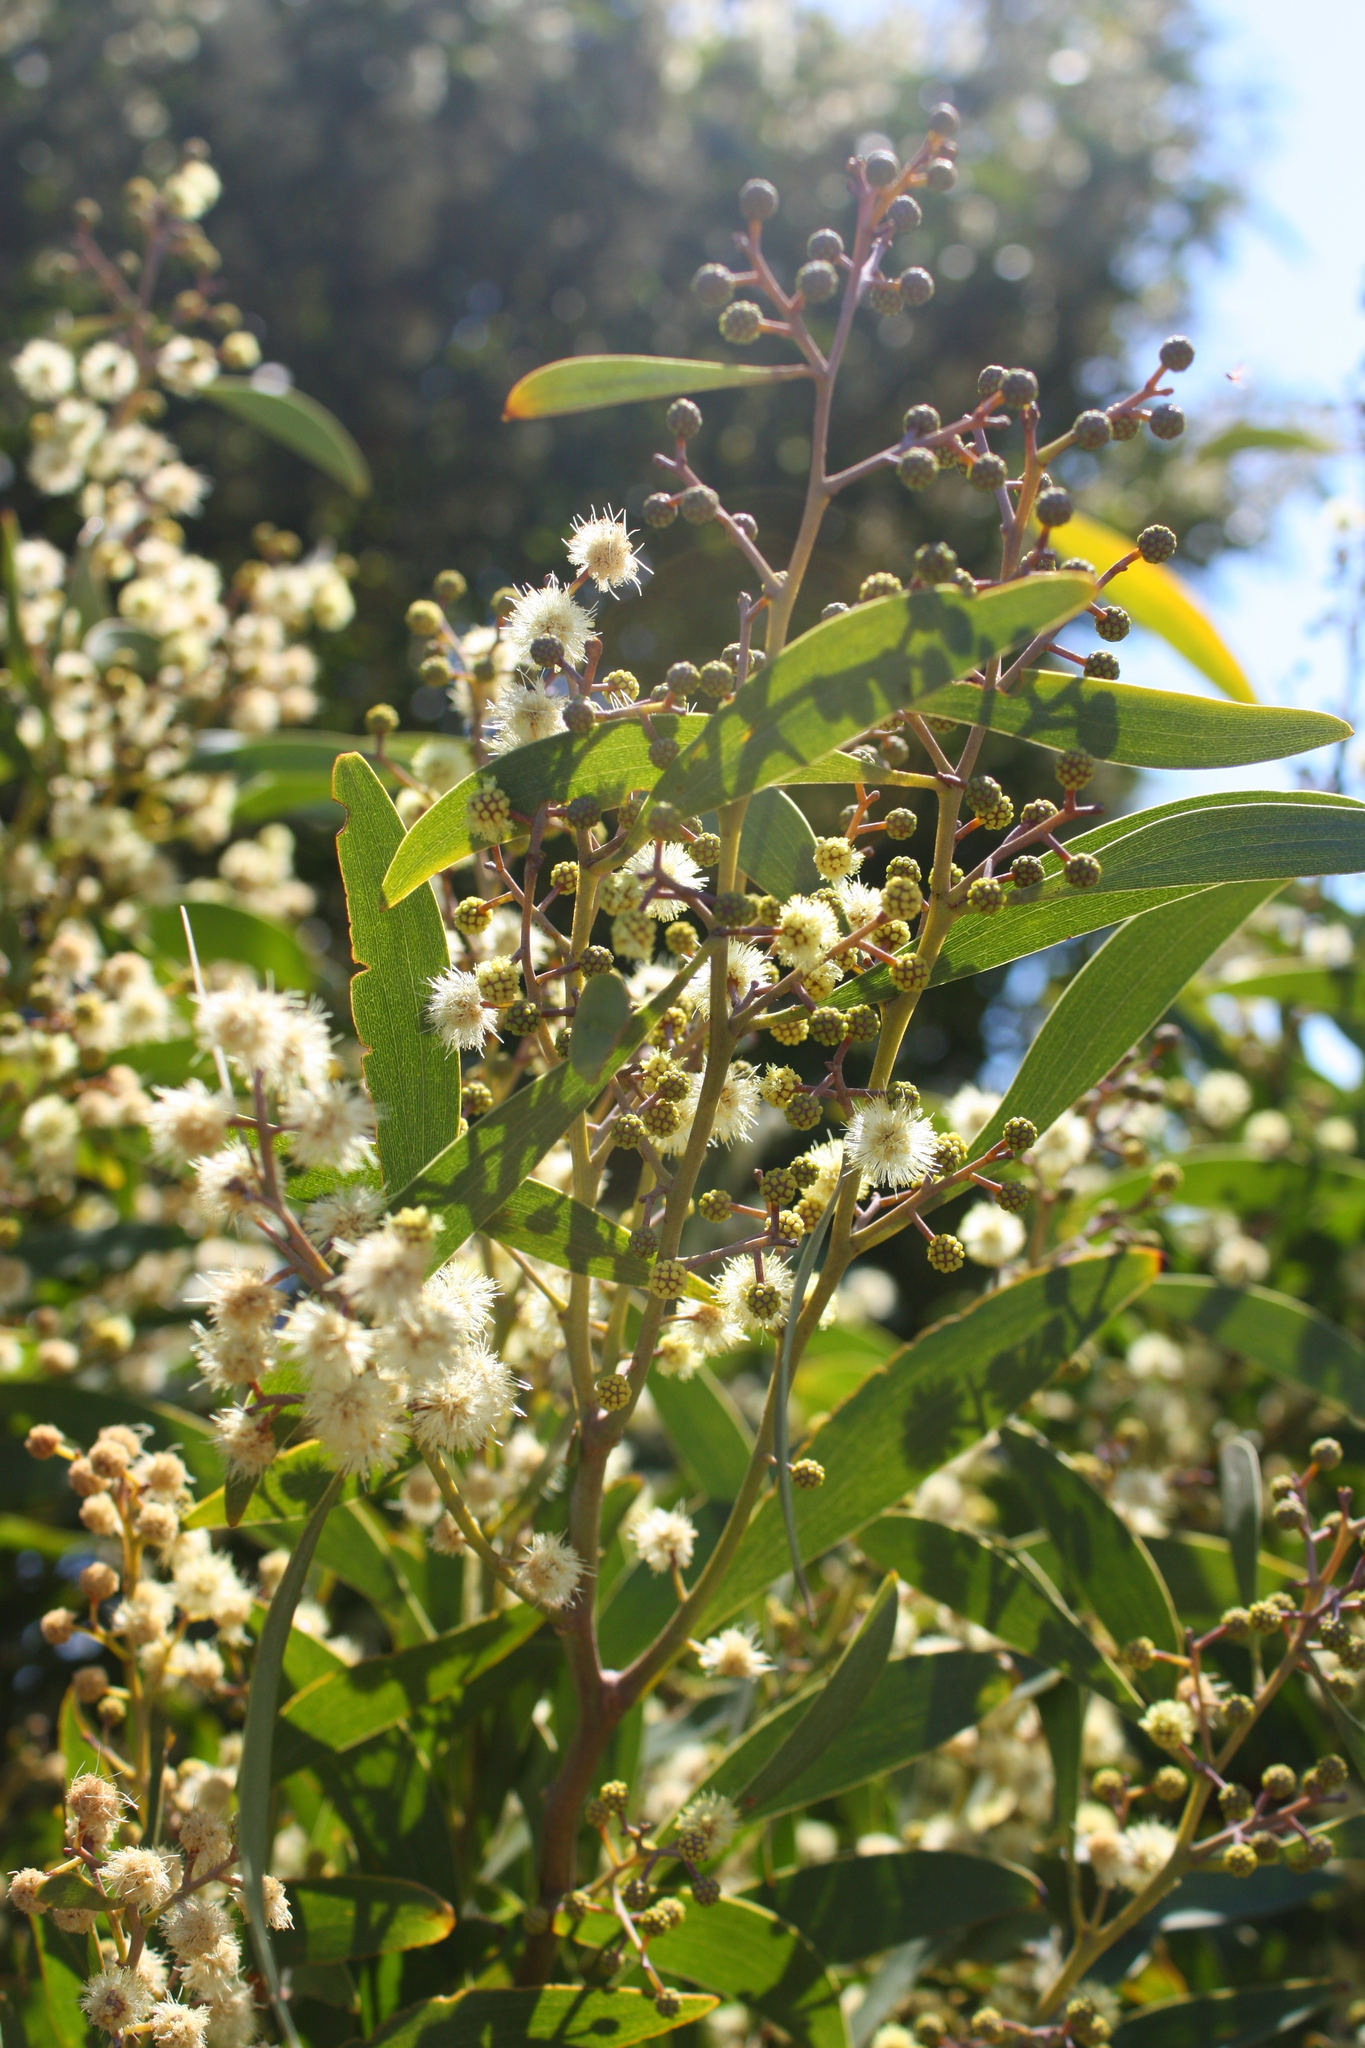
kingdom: Plantae
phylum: Tracheophyta
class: Magnoliopsida
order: Fabales
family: Fabaceae
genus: Acacia
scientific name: Acacia melanoxylon
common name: Blackwood
